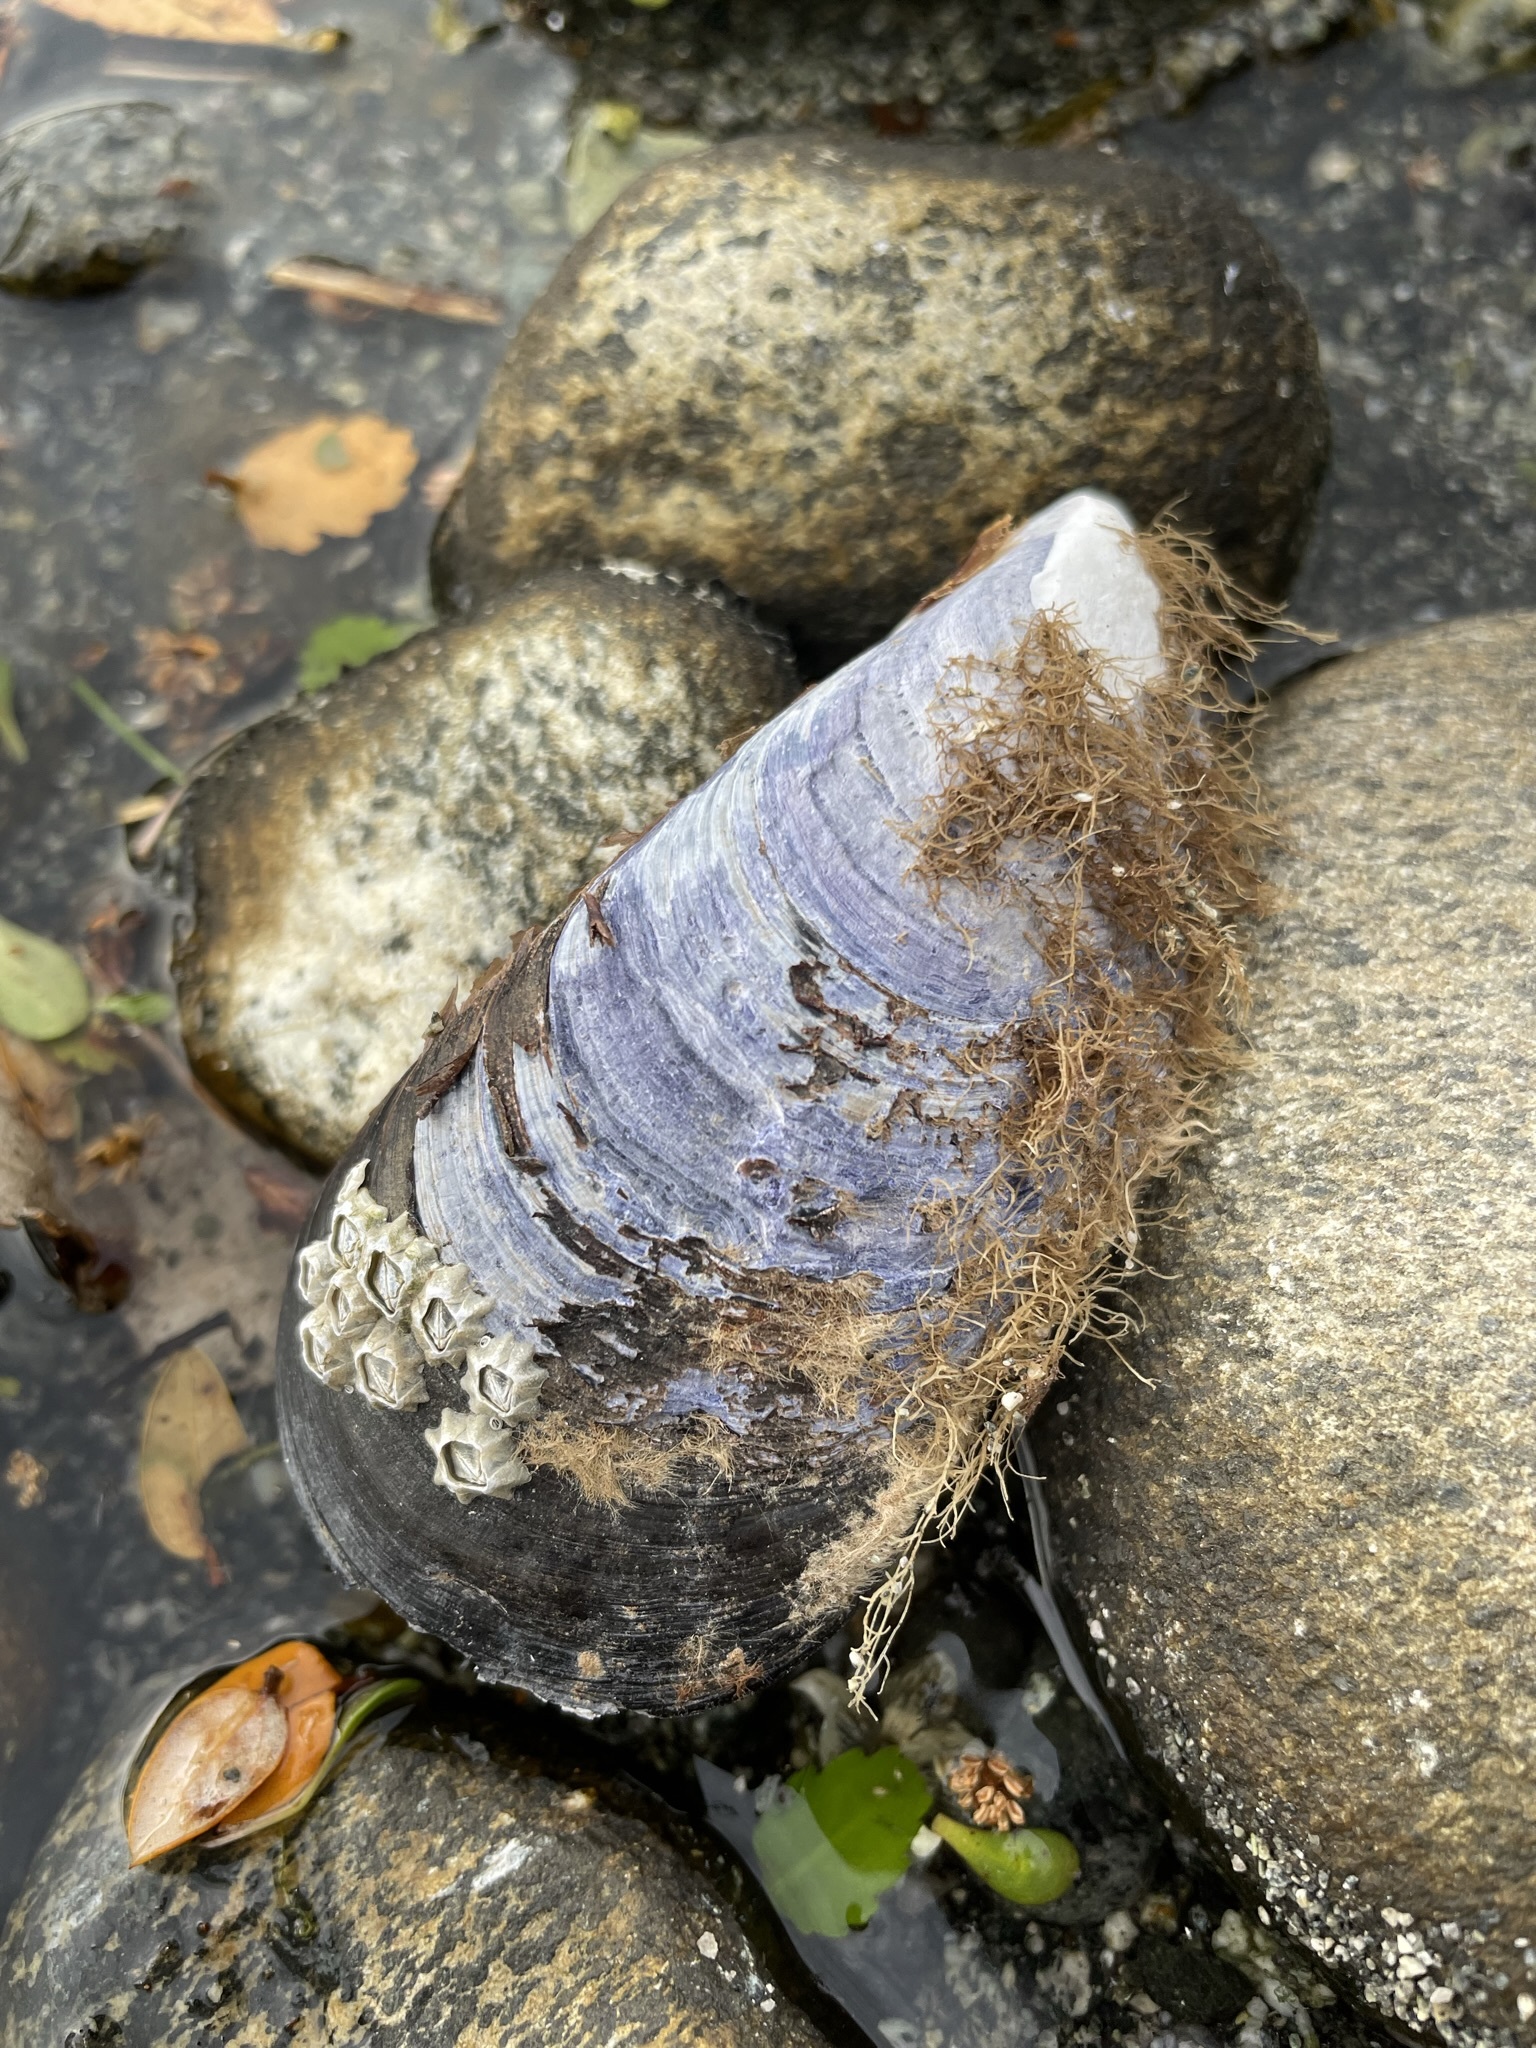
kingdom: Animalia
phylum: Mollusca
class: Bivalvia
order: Mytilida
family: Mytilidae
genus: Perna
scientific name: Perna canaliculus
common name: New zealand greenshelltm
